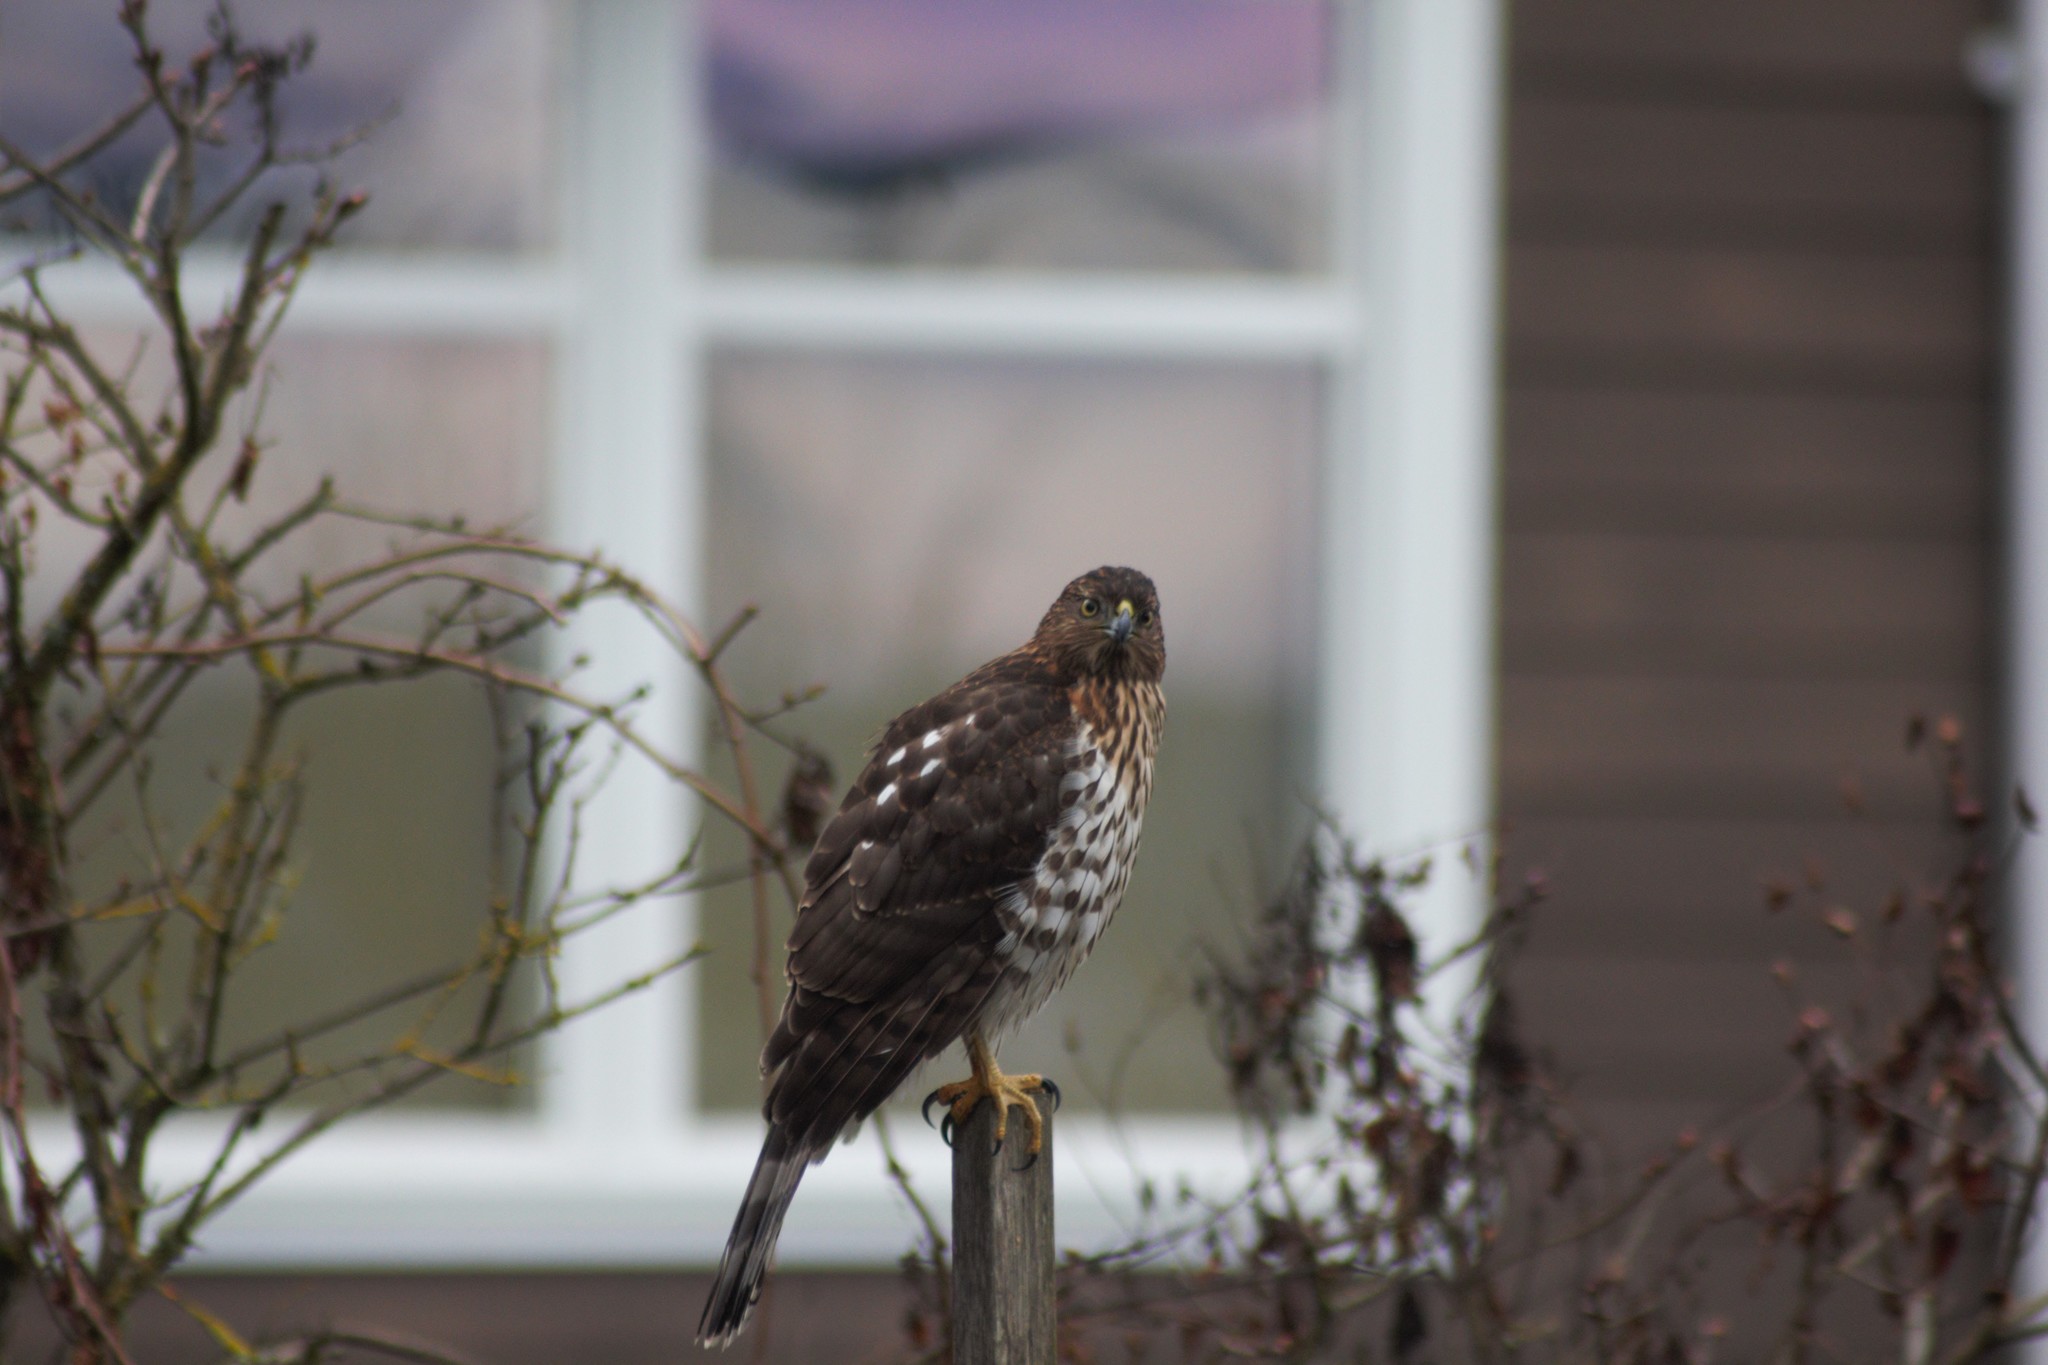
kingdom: Animalia
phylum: Chordata
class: Aves
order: Accipitriformes
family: Accipitridae
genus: Accipiter
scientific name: Accipiter cooperii
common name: Cooper's hawk
